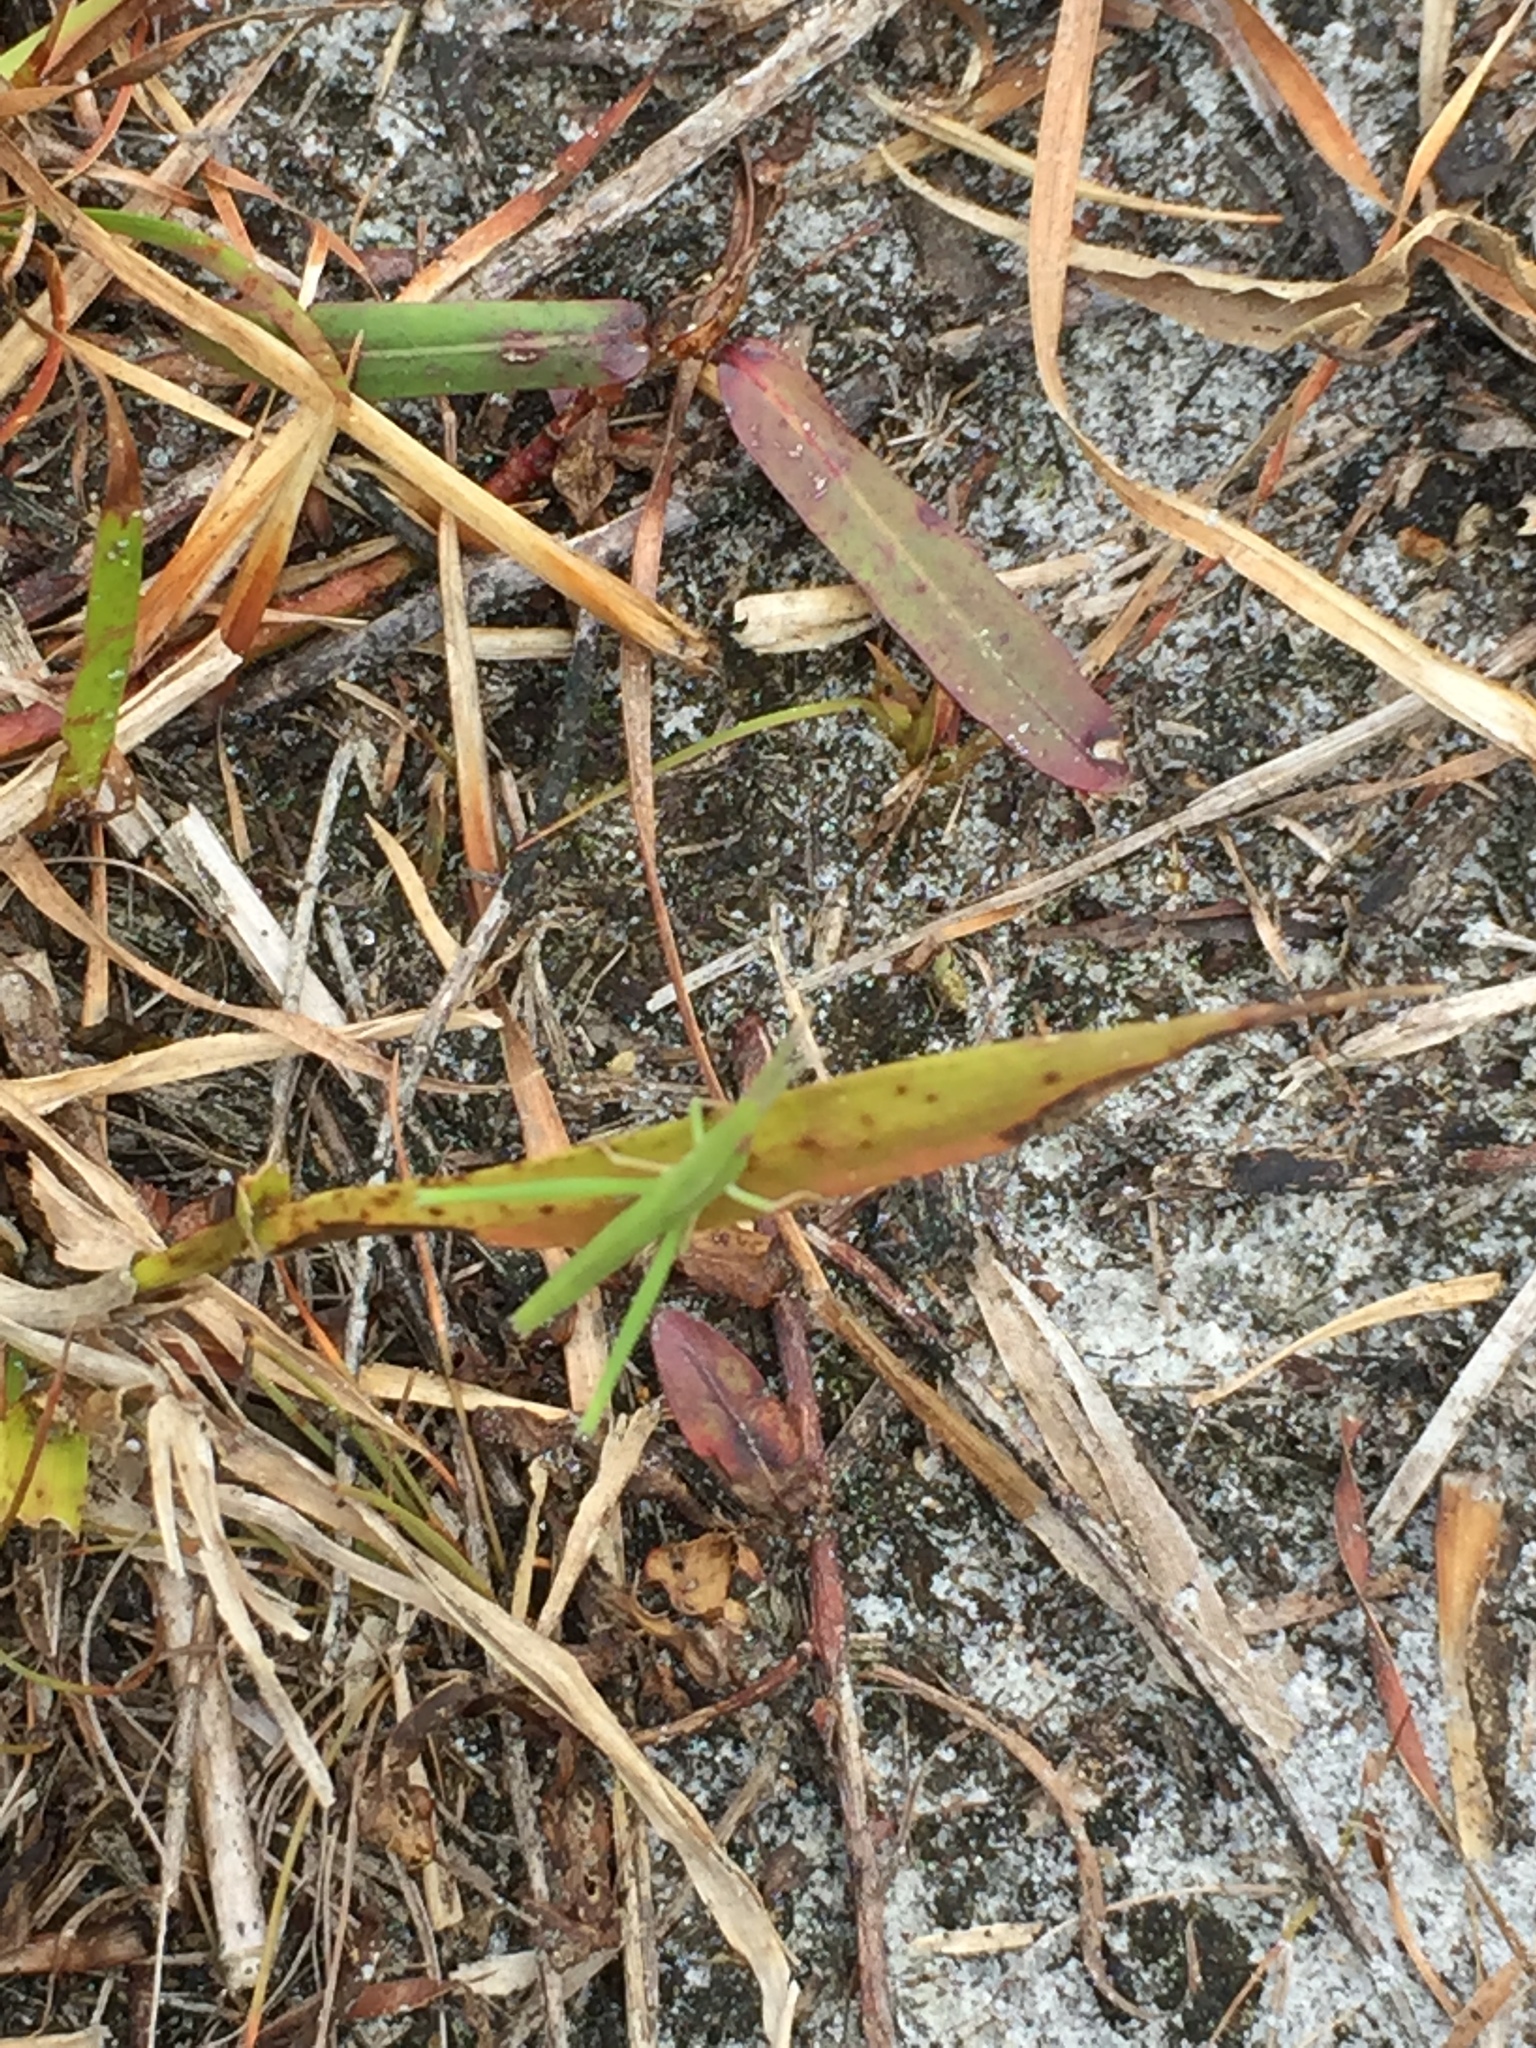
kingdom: Animalia
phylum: Arthropoda
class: Insecta
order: Orthoptera
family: Acrididae
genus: Achurum
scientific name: Achurum carinatum
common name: Long-headed toothpick grasshopper
